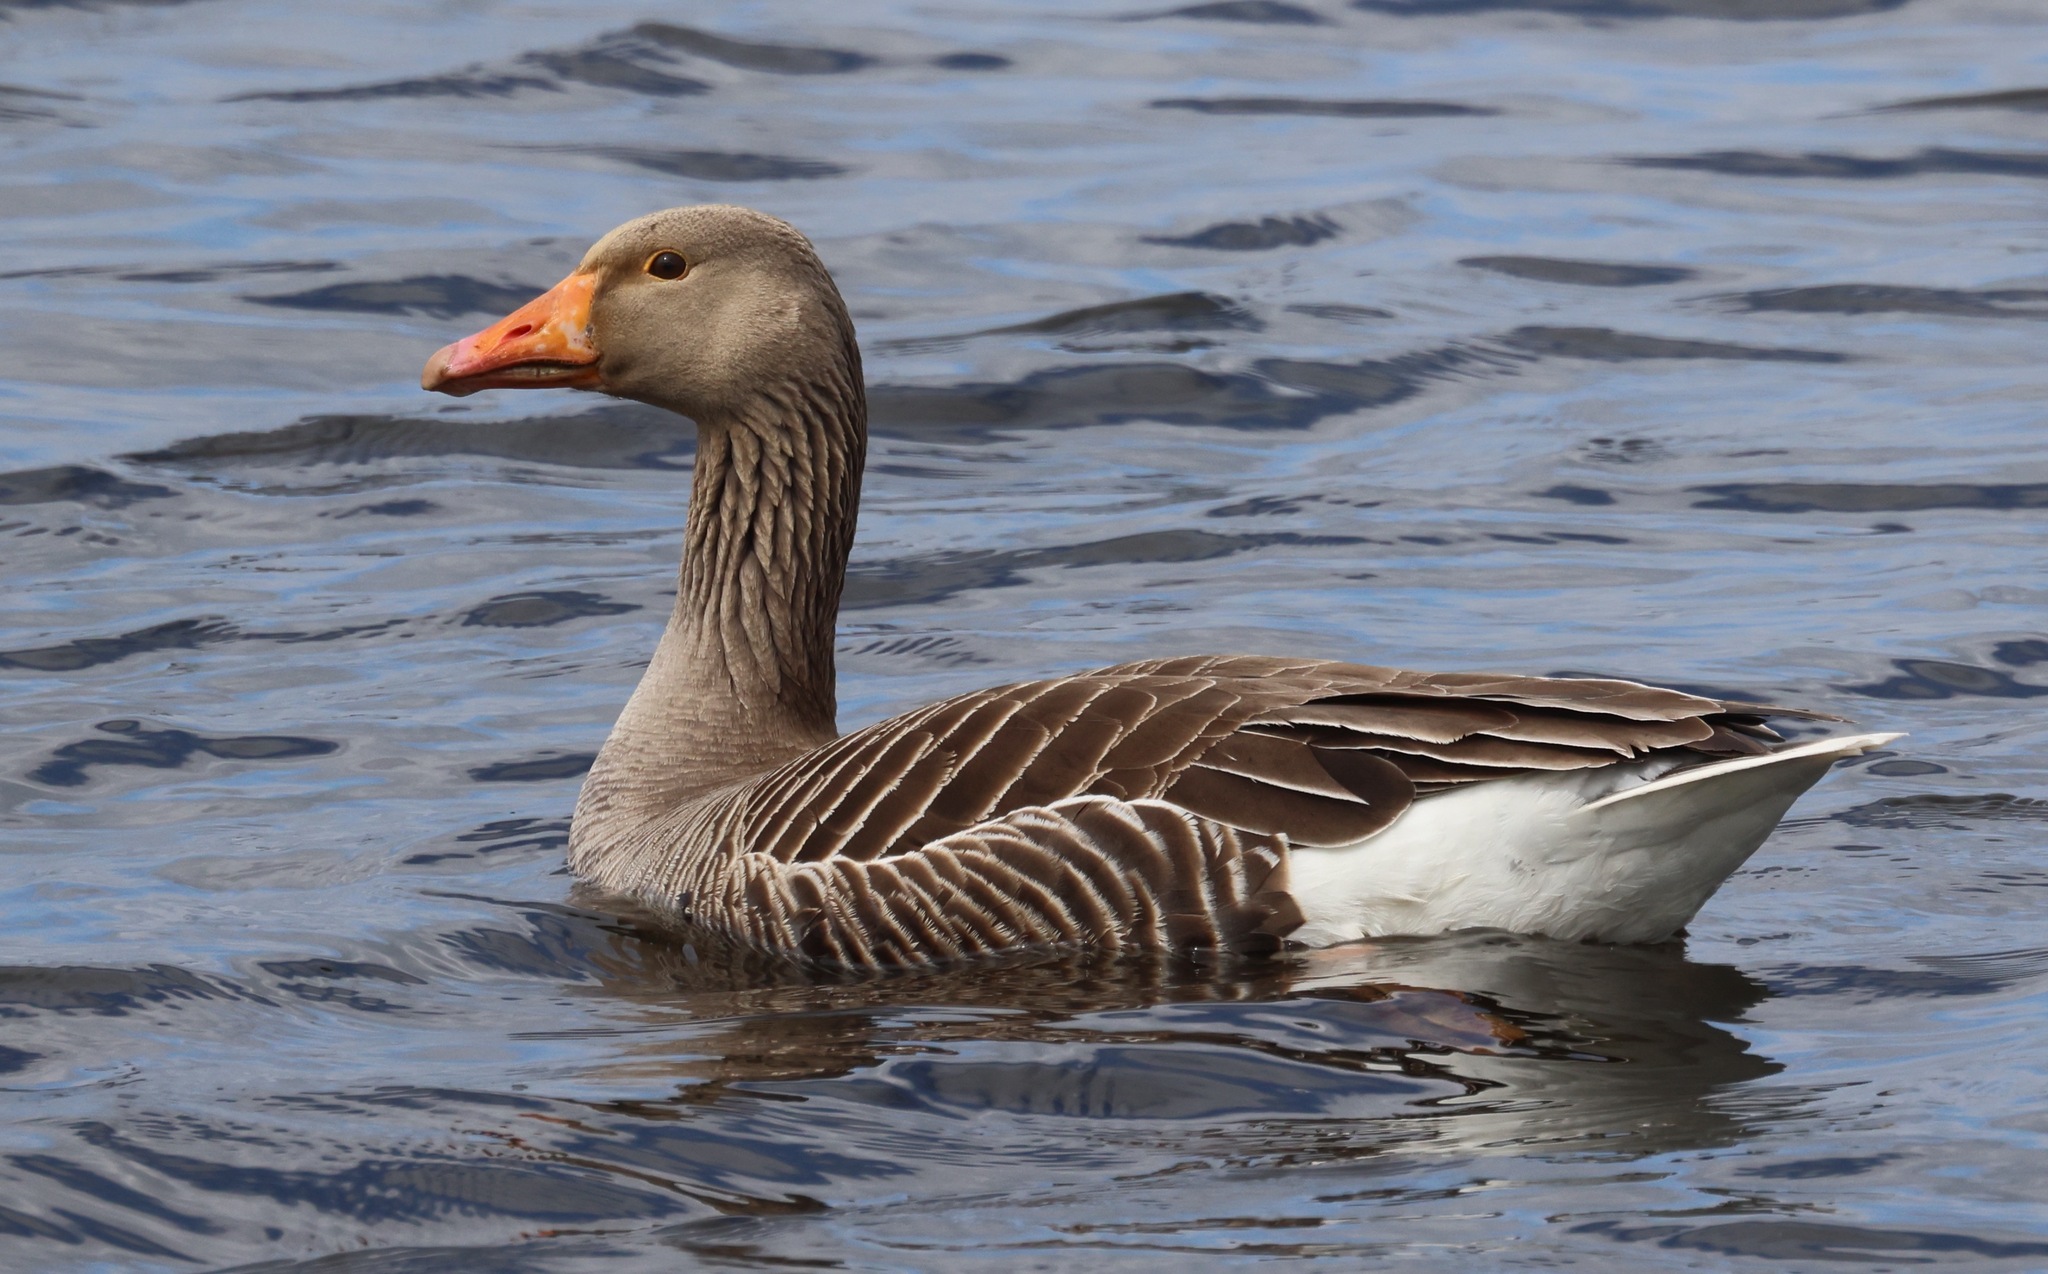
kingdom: Animalia
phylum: Chordata
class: Aves
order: Anseriformes
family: Anatidae
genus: Anser
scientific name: Anser anser
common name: Greylag goose
